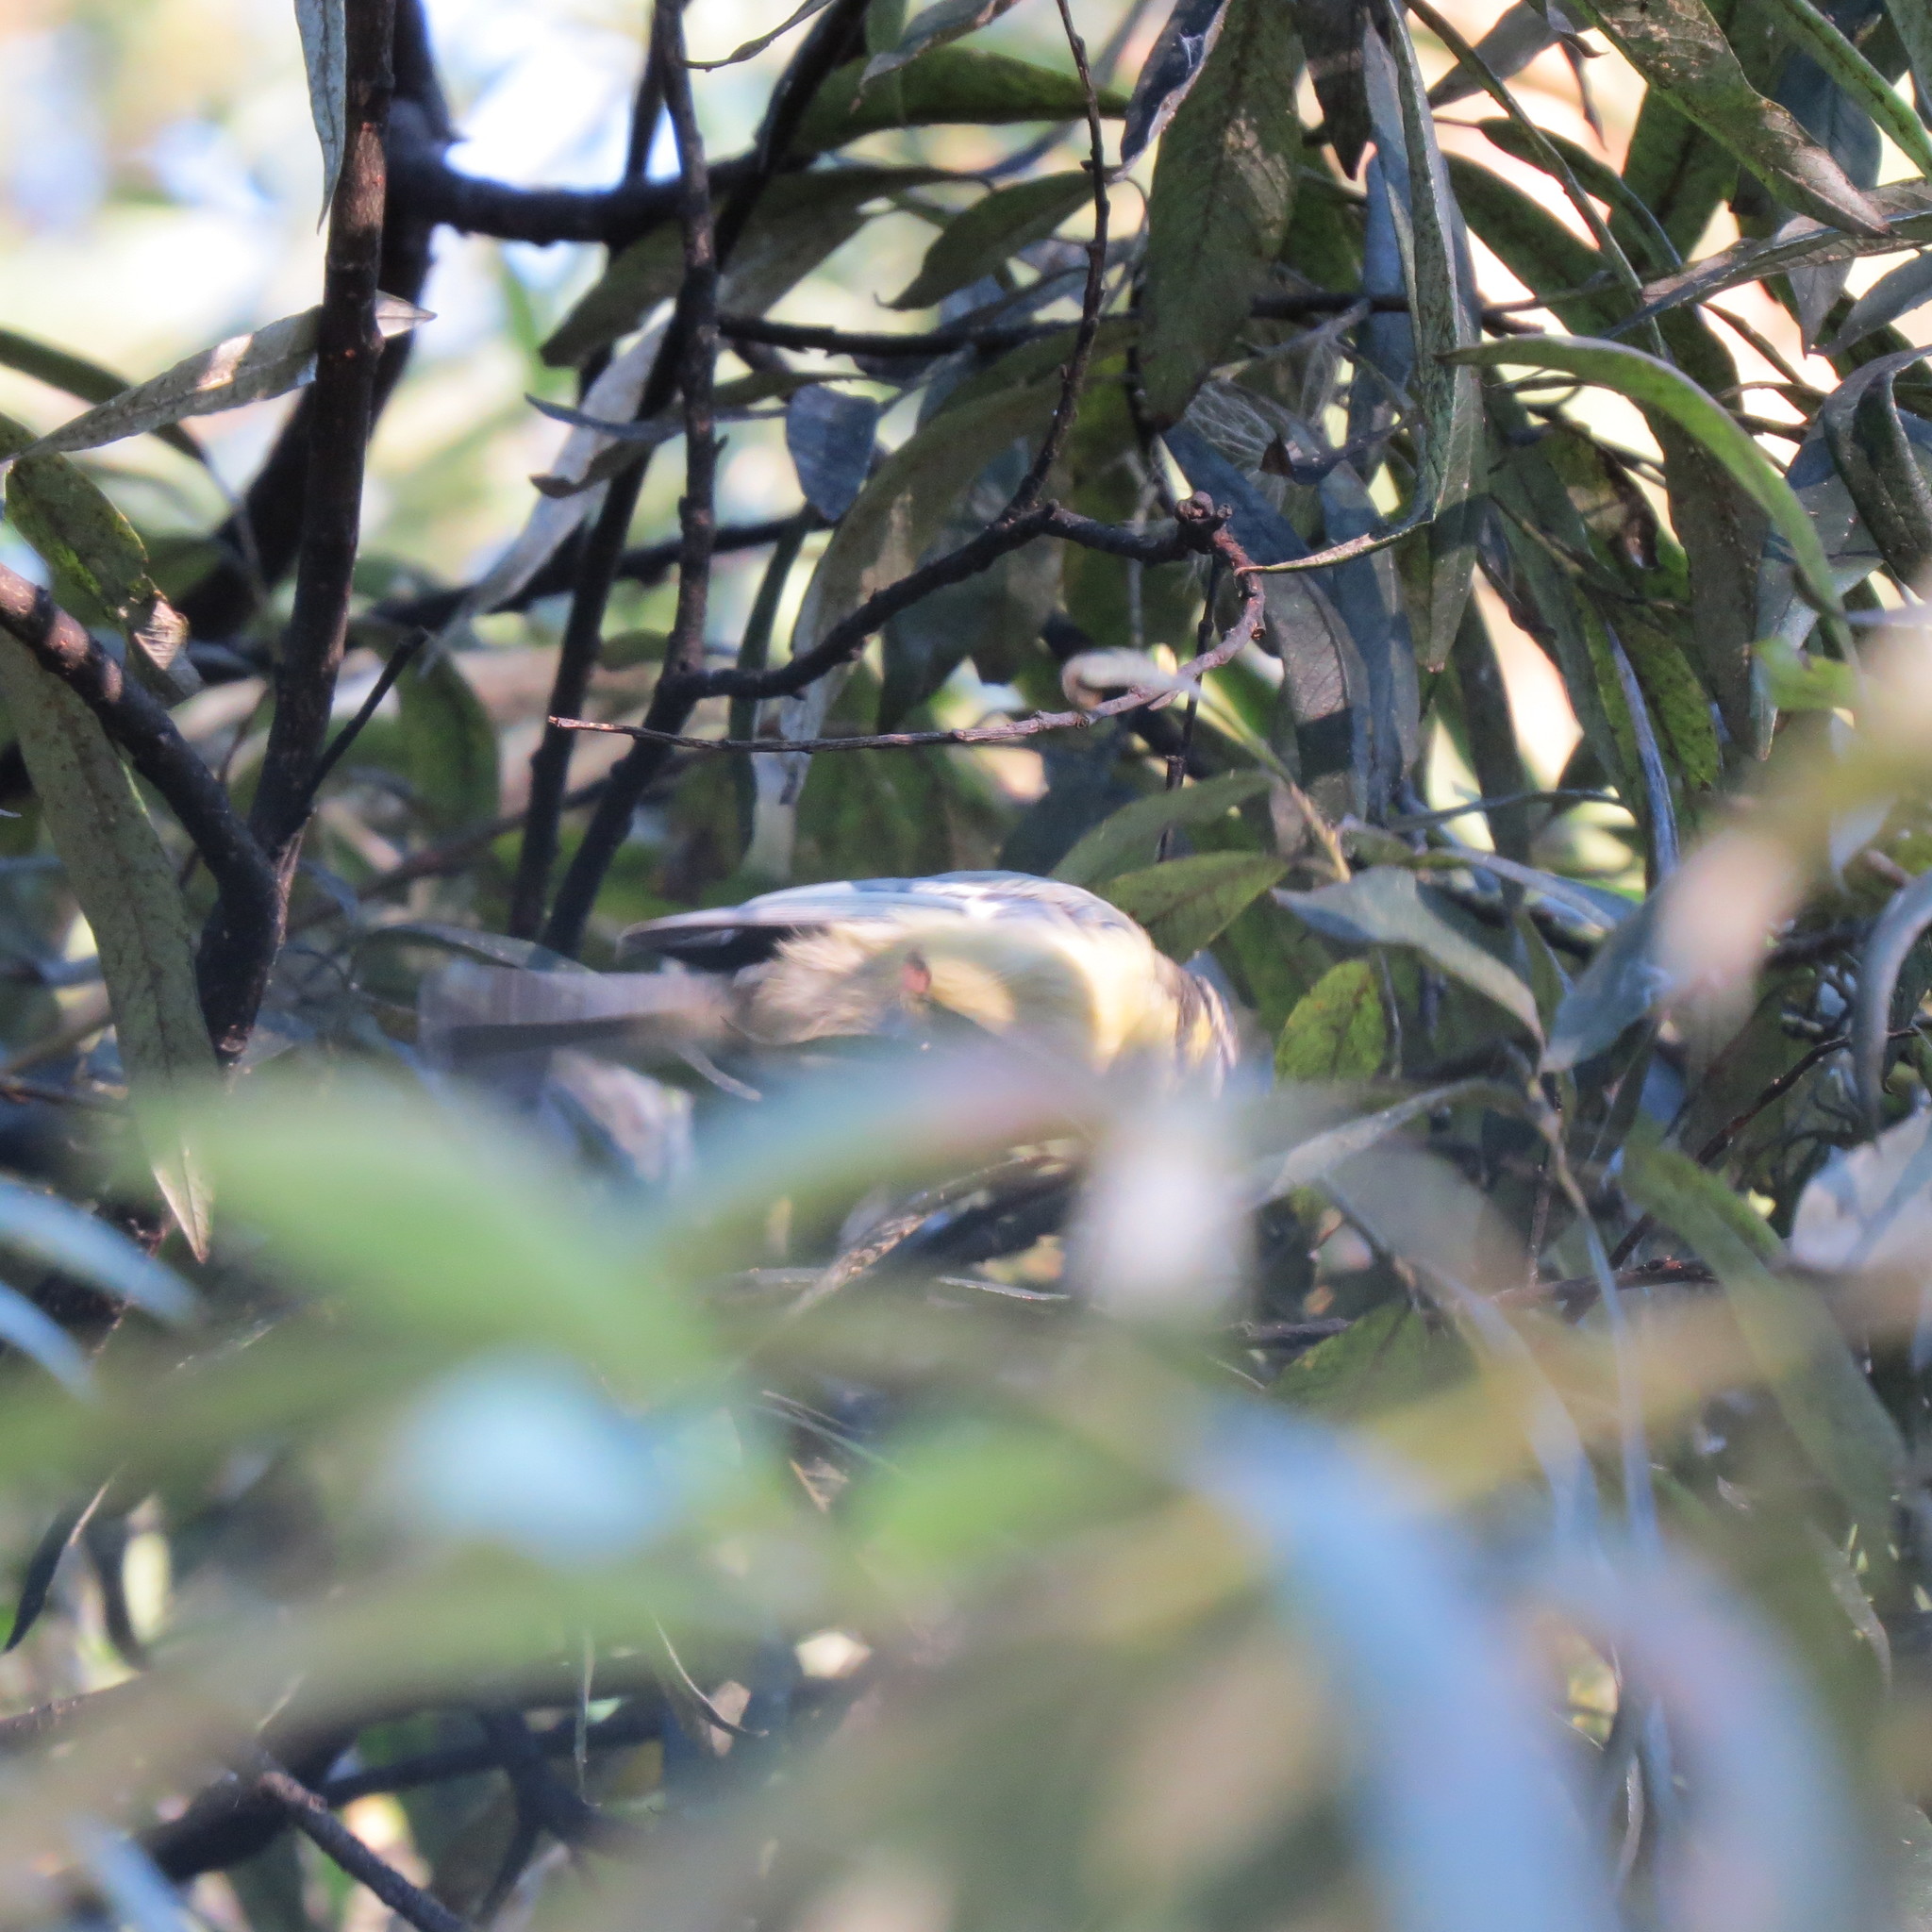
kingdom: Animalia
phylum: Chordata
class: Aves
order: Passeriformes
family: Paridae
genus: Cyanistes
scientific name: Cyanistes caeruleus
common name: Eurasian blue tit
